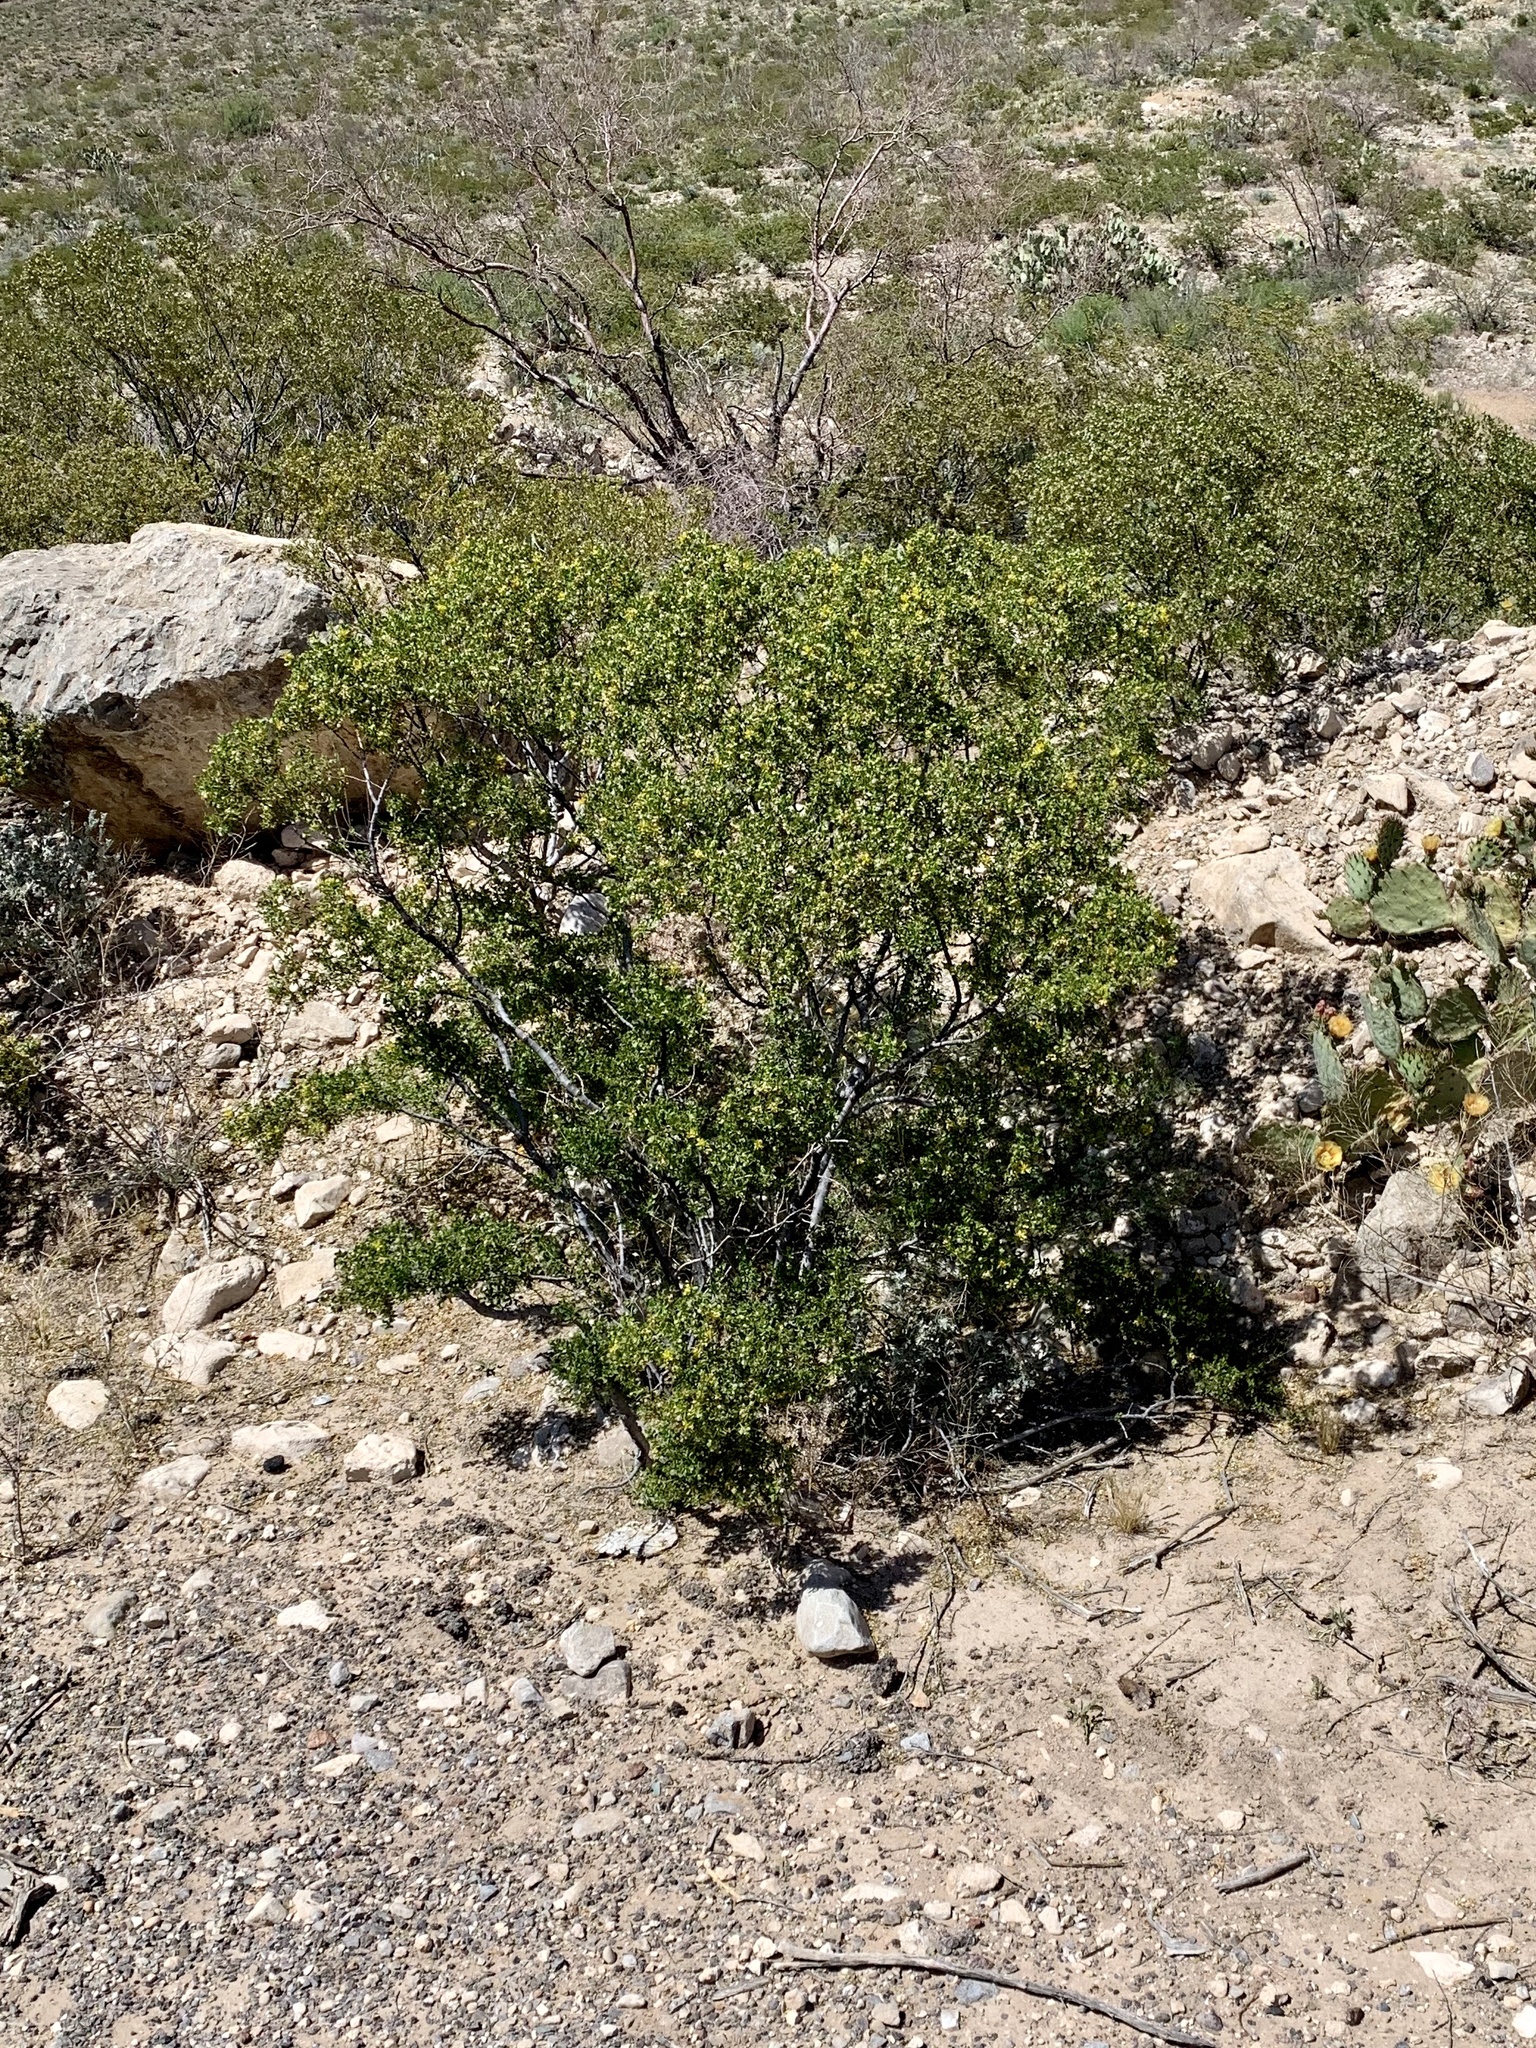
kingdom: Plantae
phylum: Tracheophyta
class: Magnoliopsida
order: Zygophyllales
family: Zygophyllaceae
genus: Larrea
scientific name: Larrea tridentata
